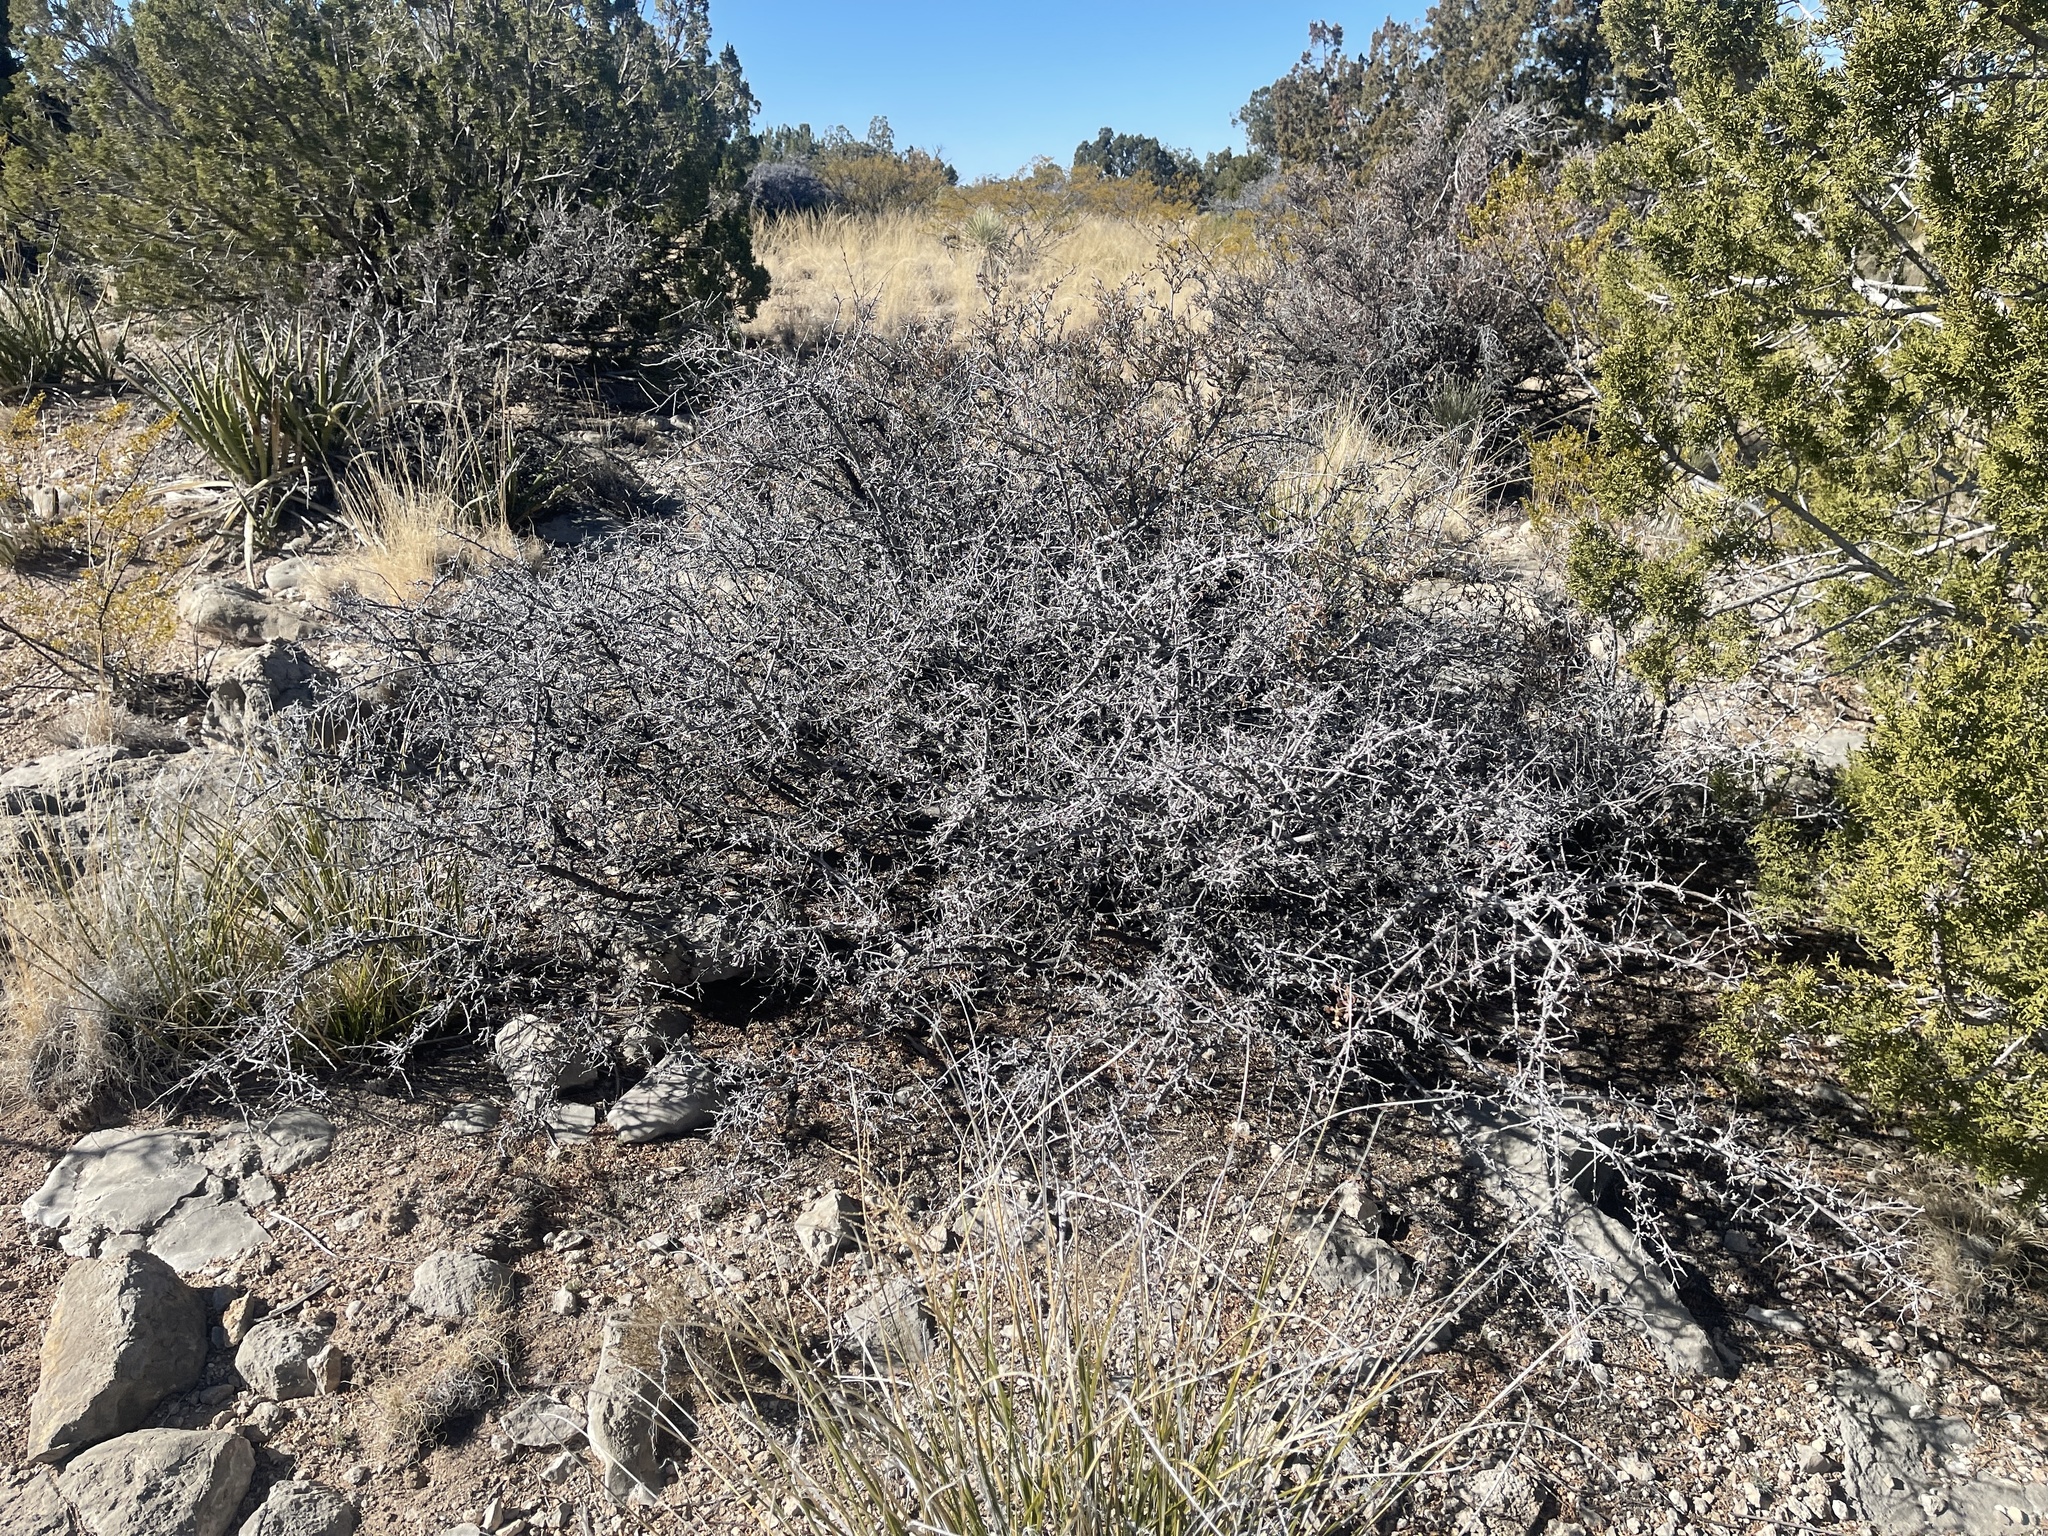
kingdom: Plantae
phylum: Tracheophyta
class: Magnoliopsida
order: Sapindales
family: Anacardiaceae
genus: Rhus
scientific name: Rhus microphylla
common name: Desert sumac
